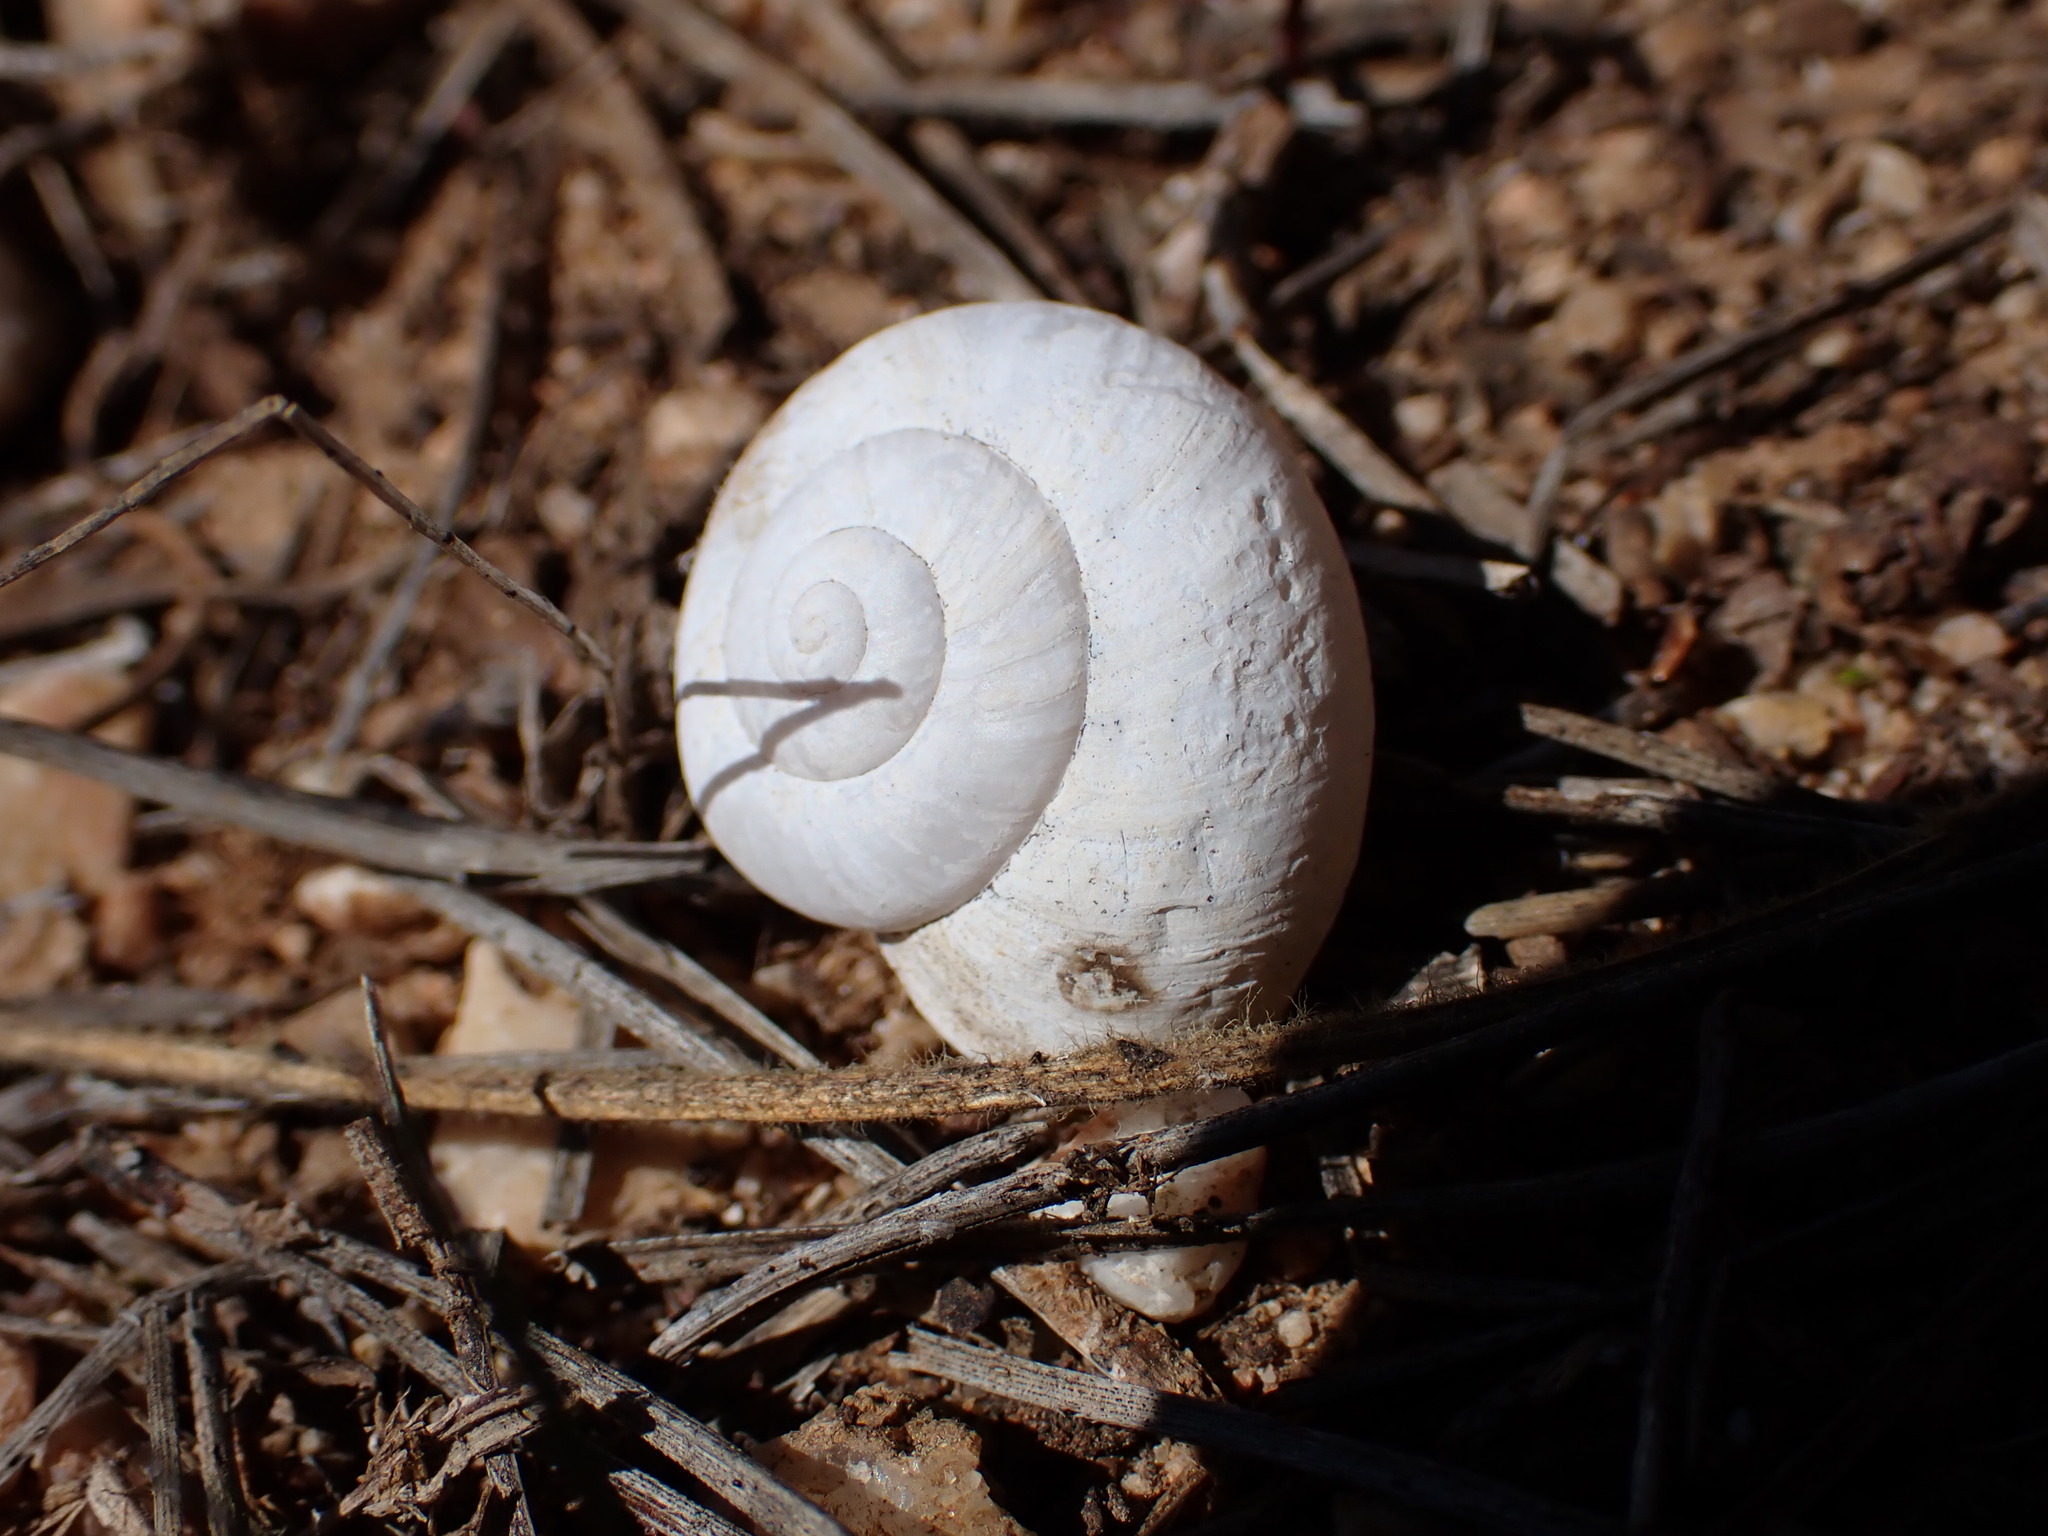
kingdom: Animalia
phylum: Mollusca
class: Gastropoda
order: Stylommatophora
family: Helicidae
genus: Pseudotachea
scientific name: Pseudotachea splendida
